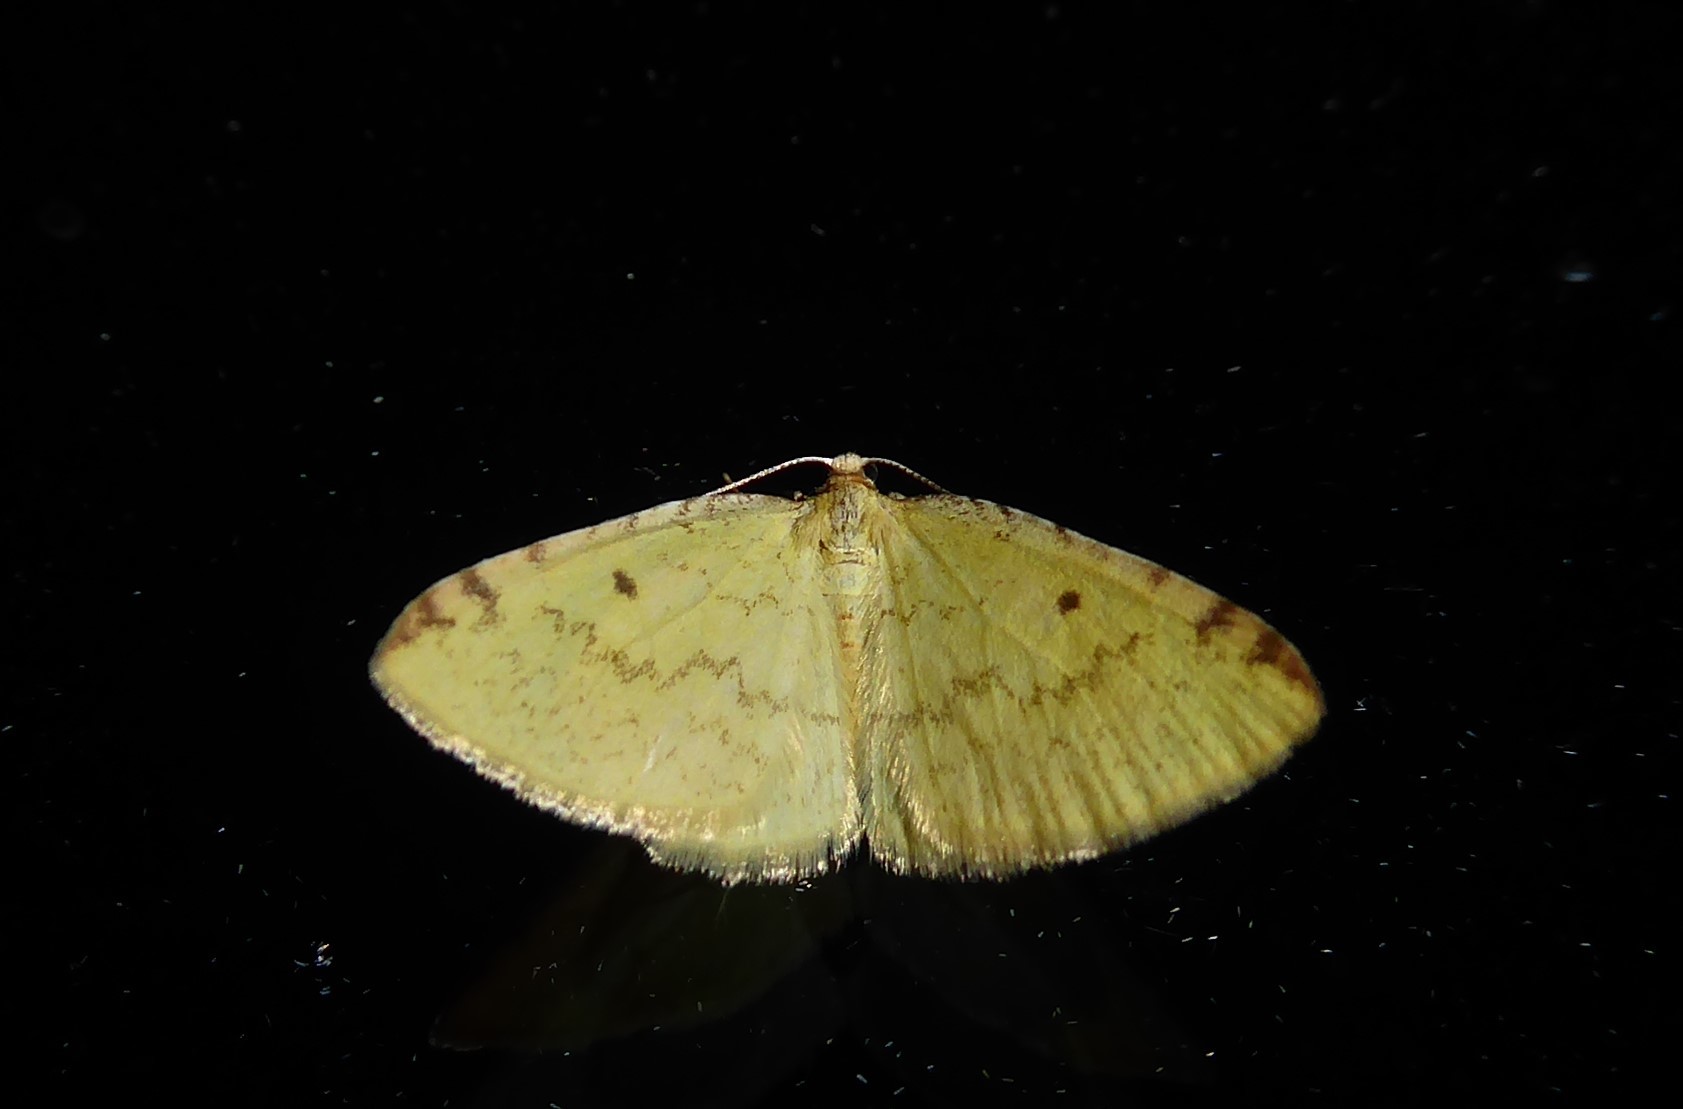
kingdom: Animalia
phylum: Arthropoda
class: Insecta
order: Lepidoptera
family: Geometridae
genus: Epiphryne
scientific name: Epiphryne undosata
